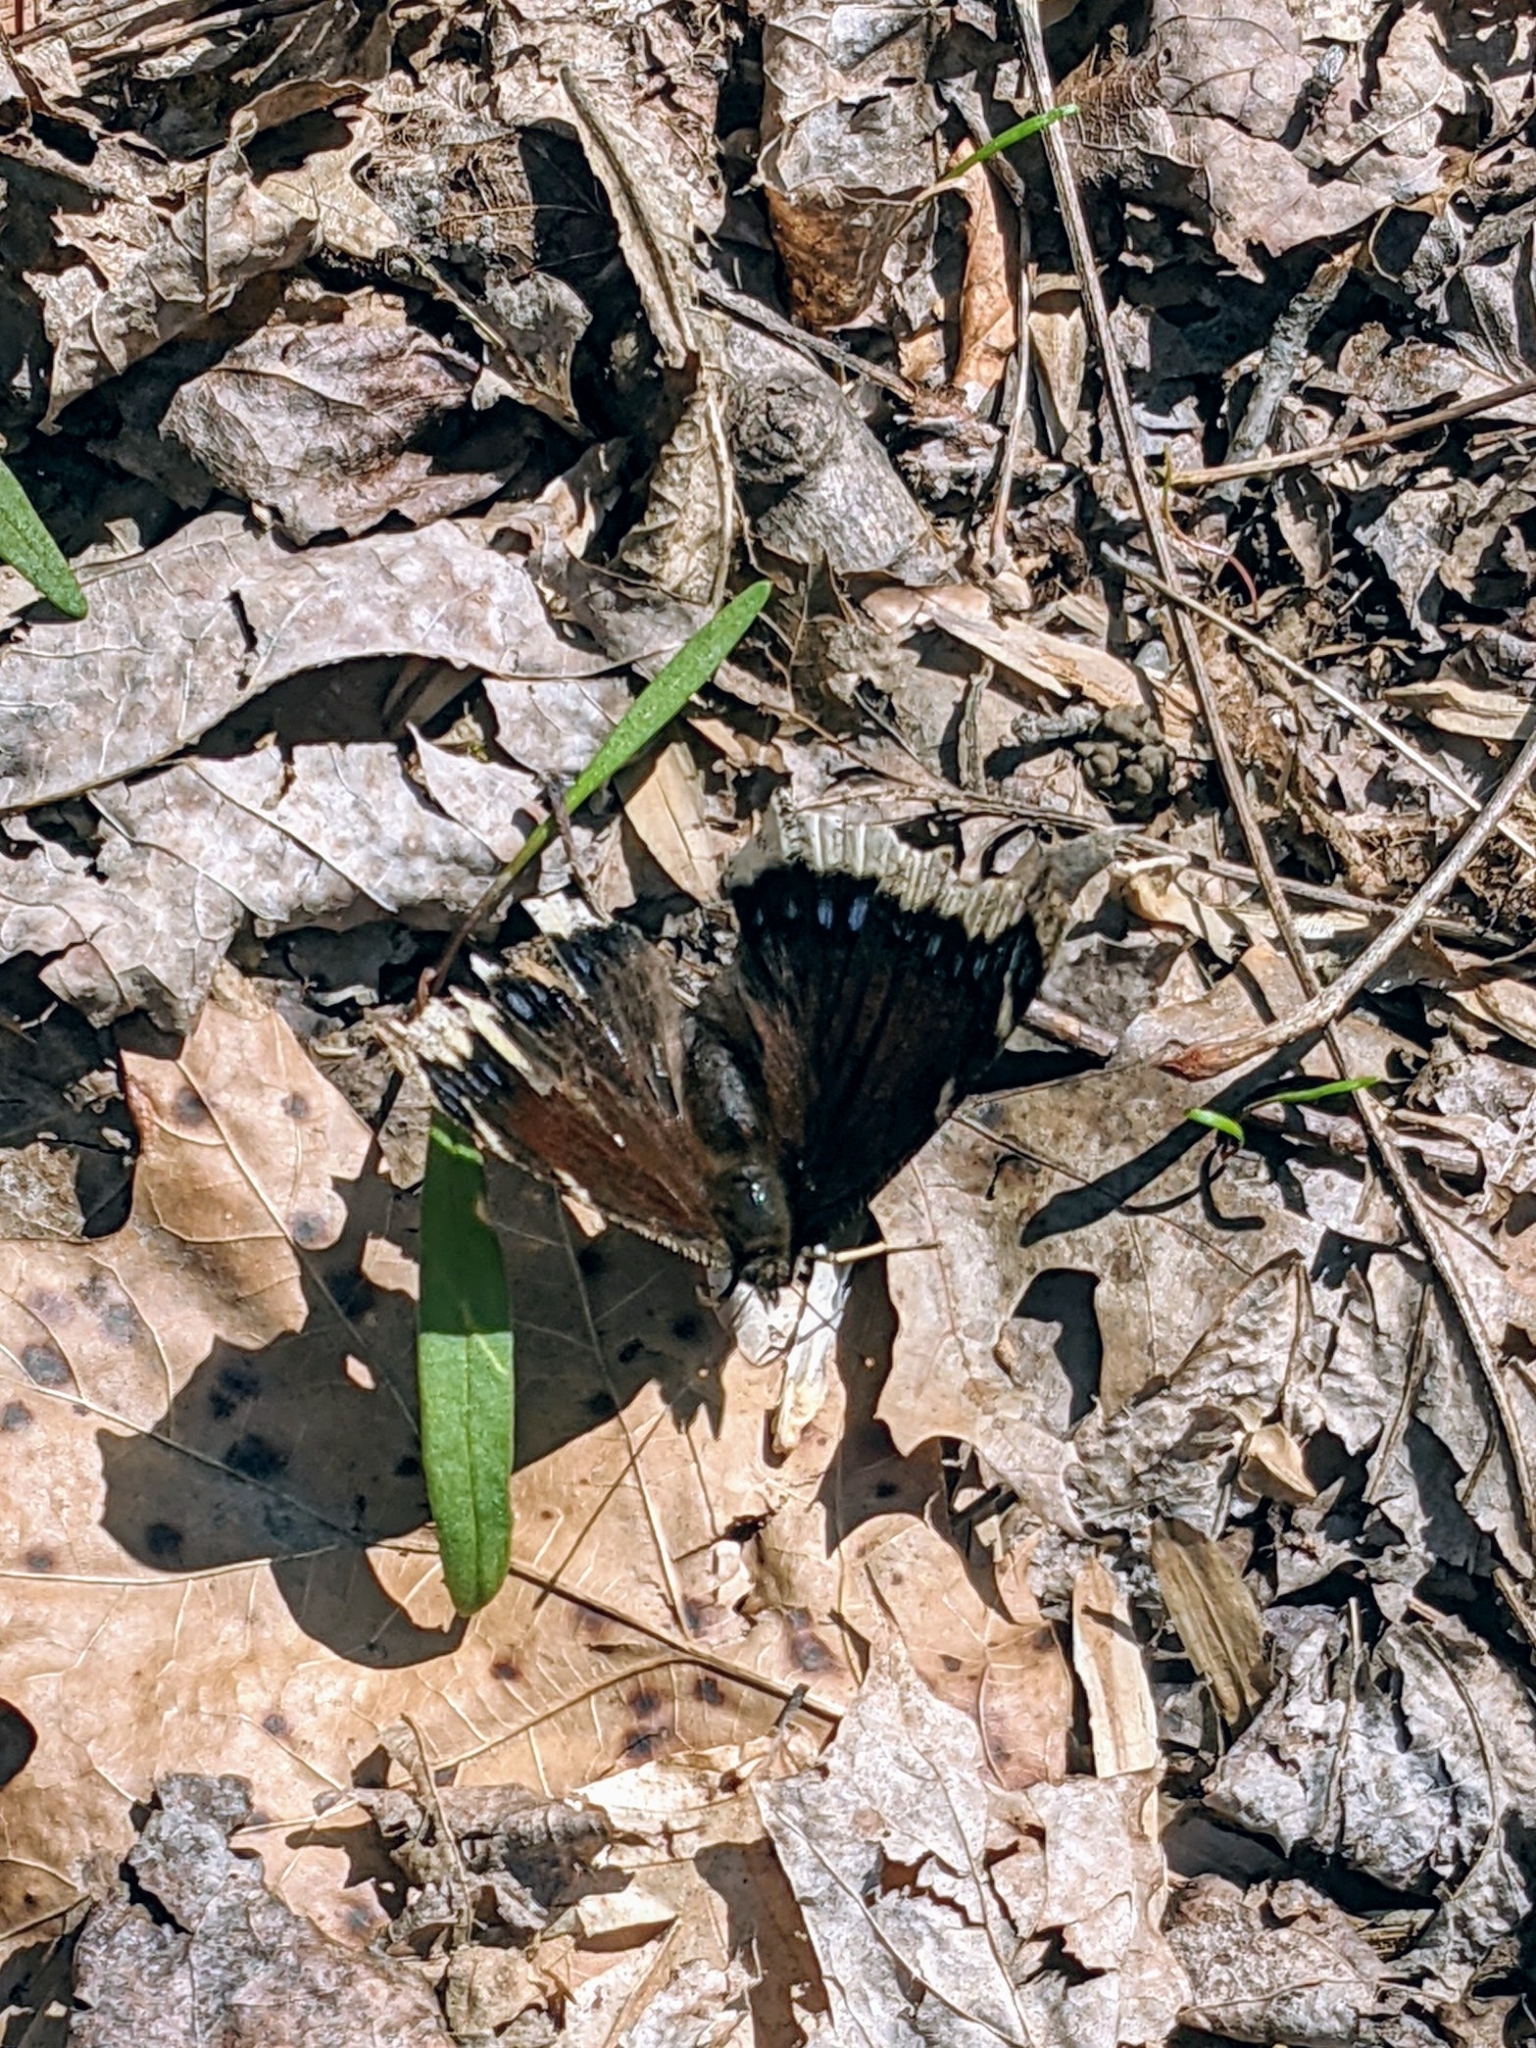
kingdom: Animalia
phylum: Arthropoda
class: Insecta
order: Lepidoptera
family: Nymphalidae
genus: Nymphalis
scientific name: Nymphalis antiopa
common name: Camberwell beauty
